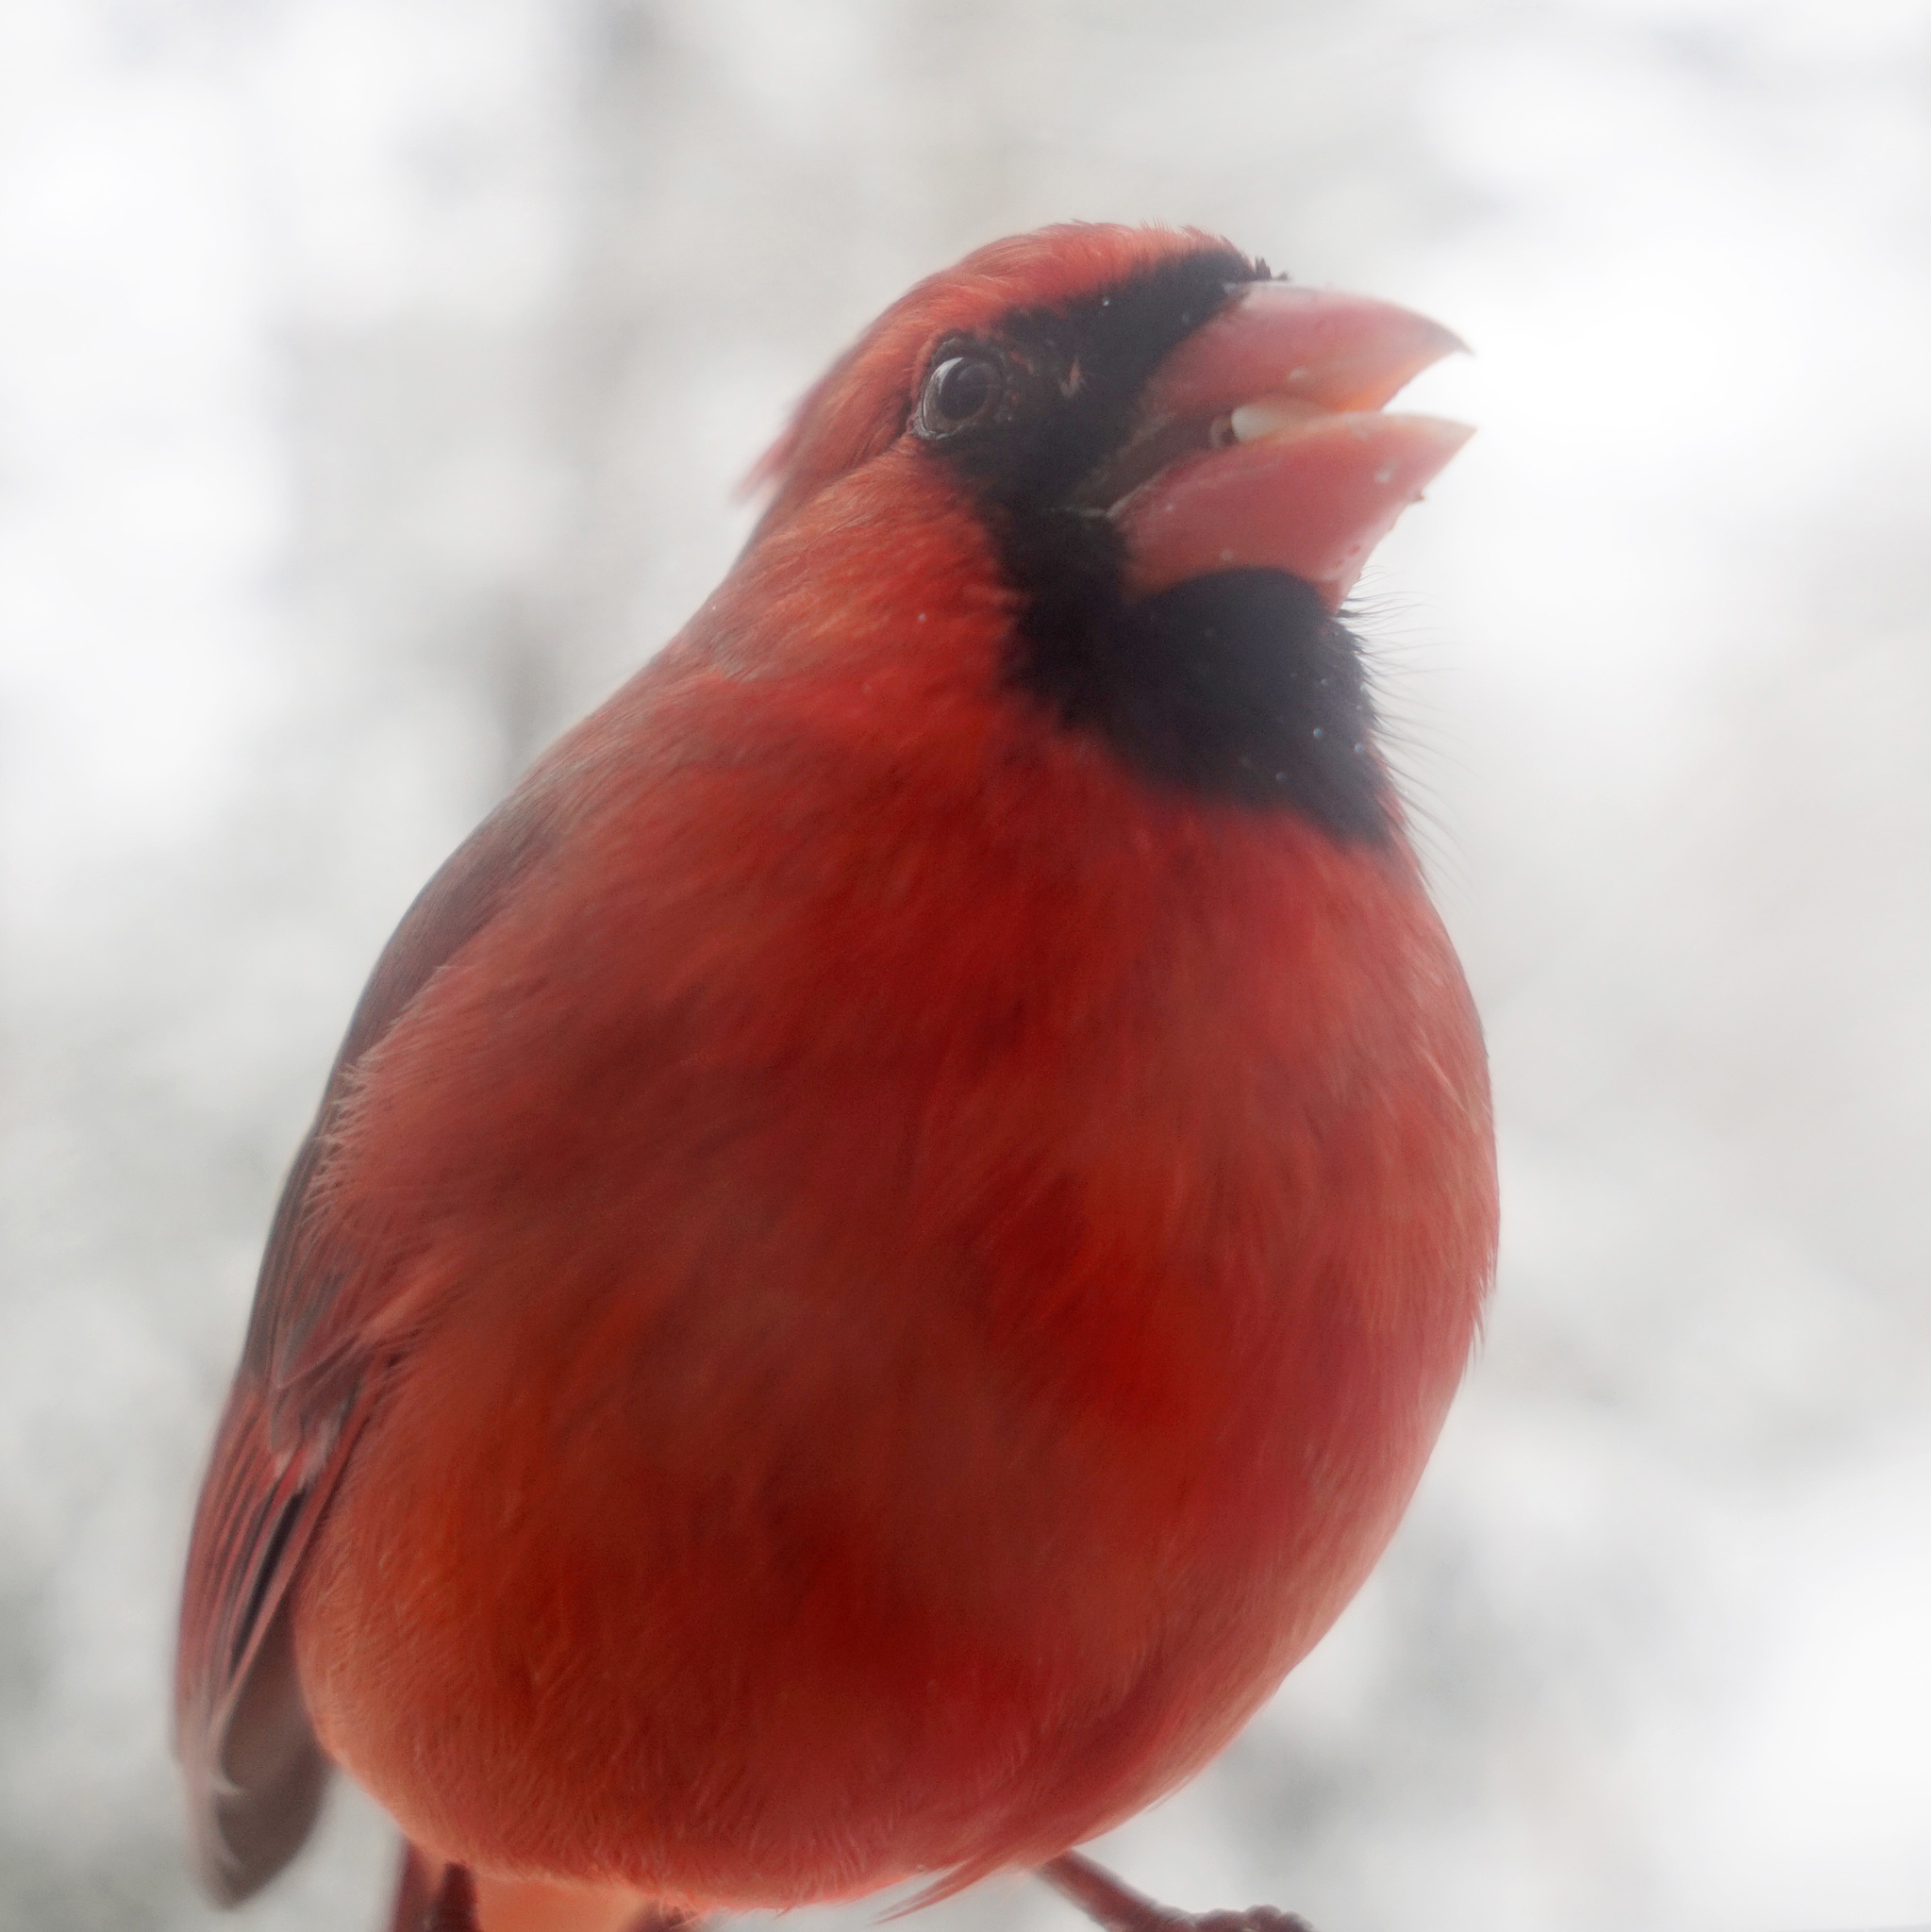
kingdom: Animalia
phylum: Chordata
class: Aves
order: Passeriformes
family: Cardinalidae
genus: Cardinalis
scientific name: Cardinalis cardinalis
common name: Northern cardinal
